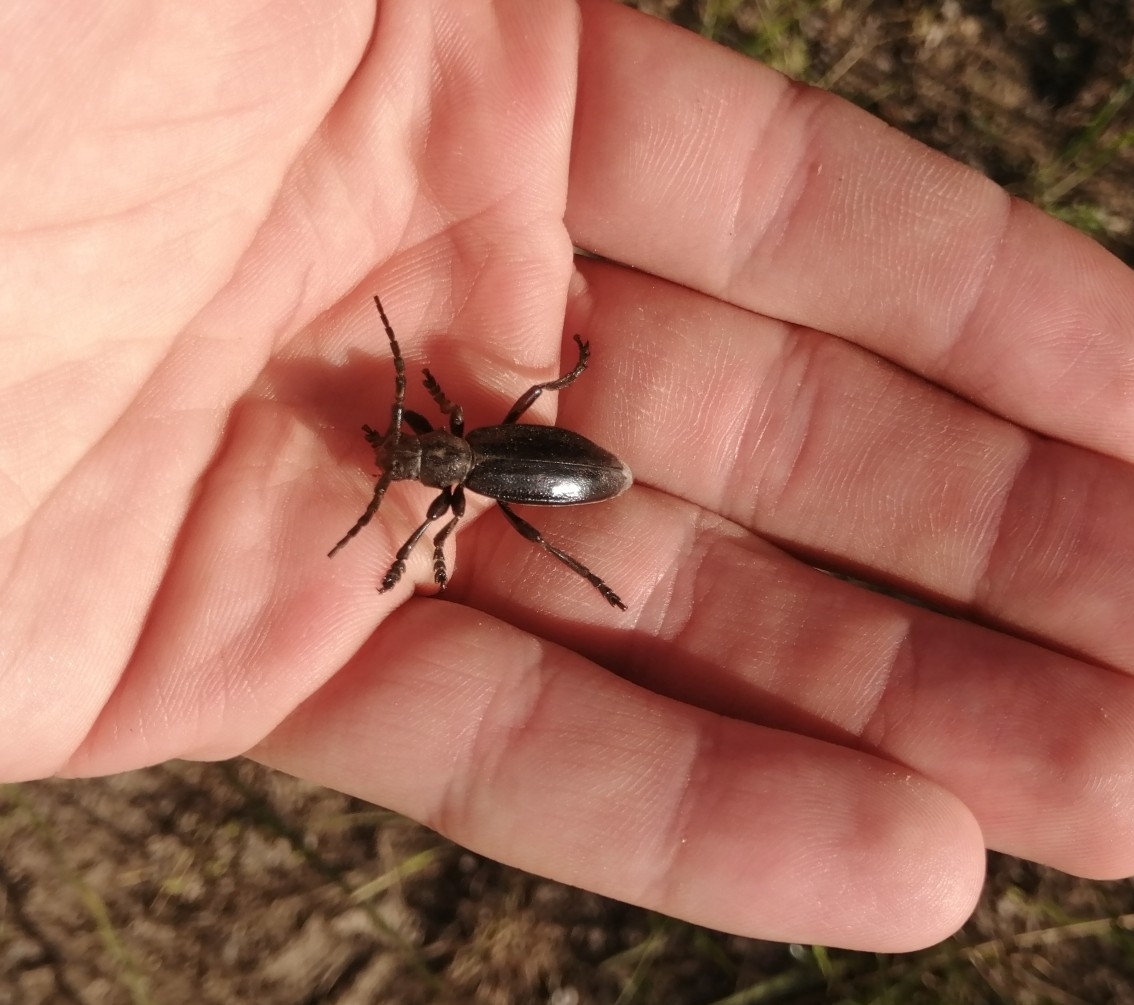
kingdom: Animalia
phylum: Arthropoda
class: Insecta
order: Coleoptera
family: Cerambycidae
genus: Dorcadion
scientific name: Dorcadion carinatum
